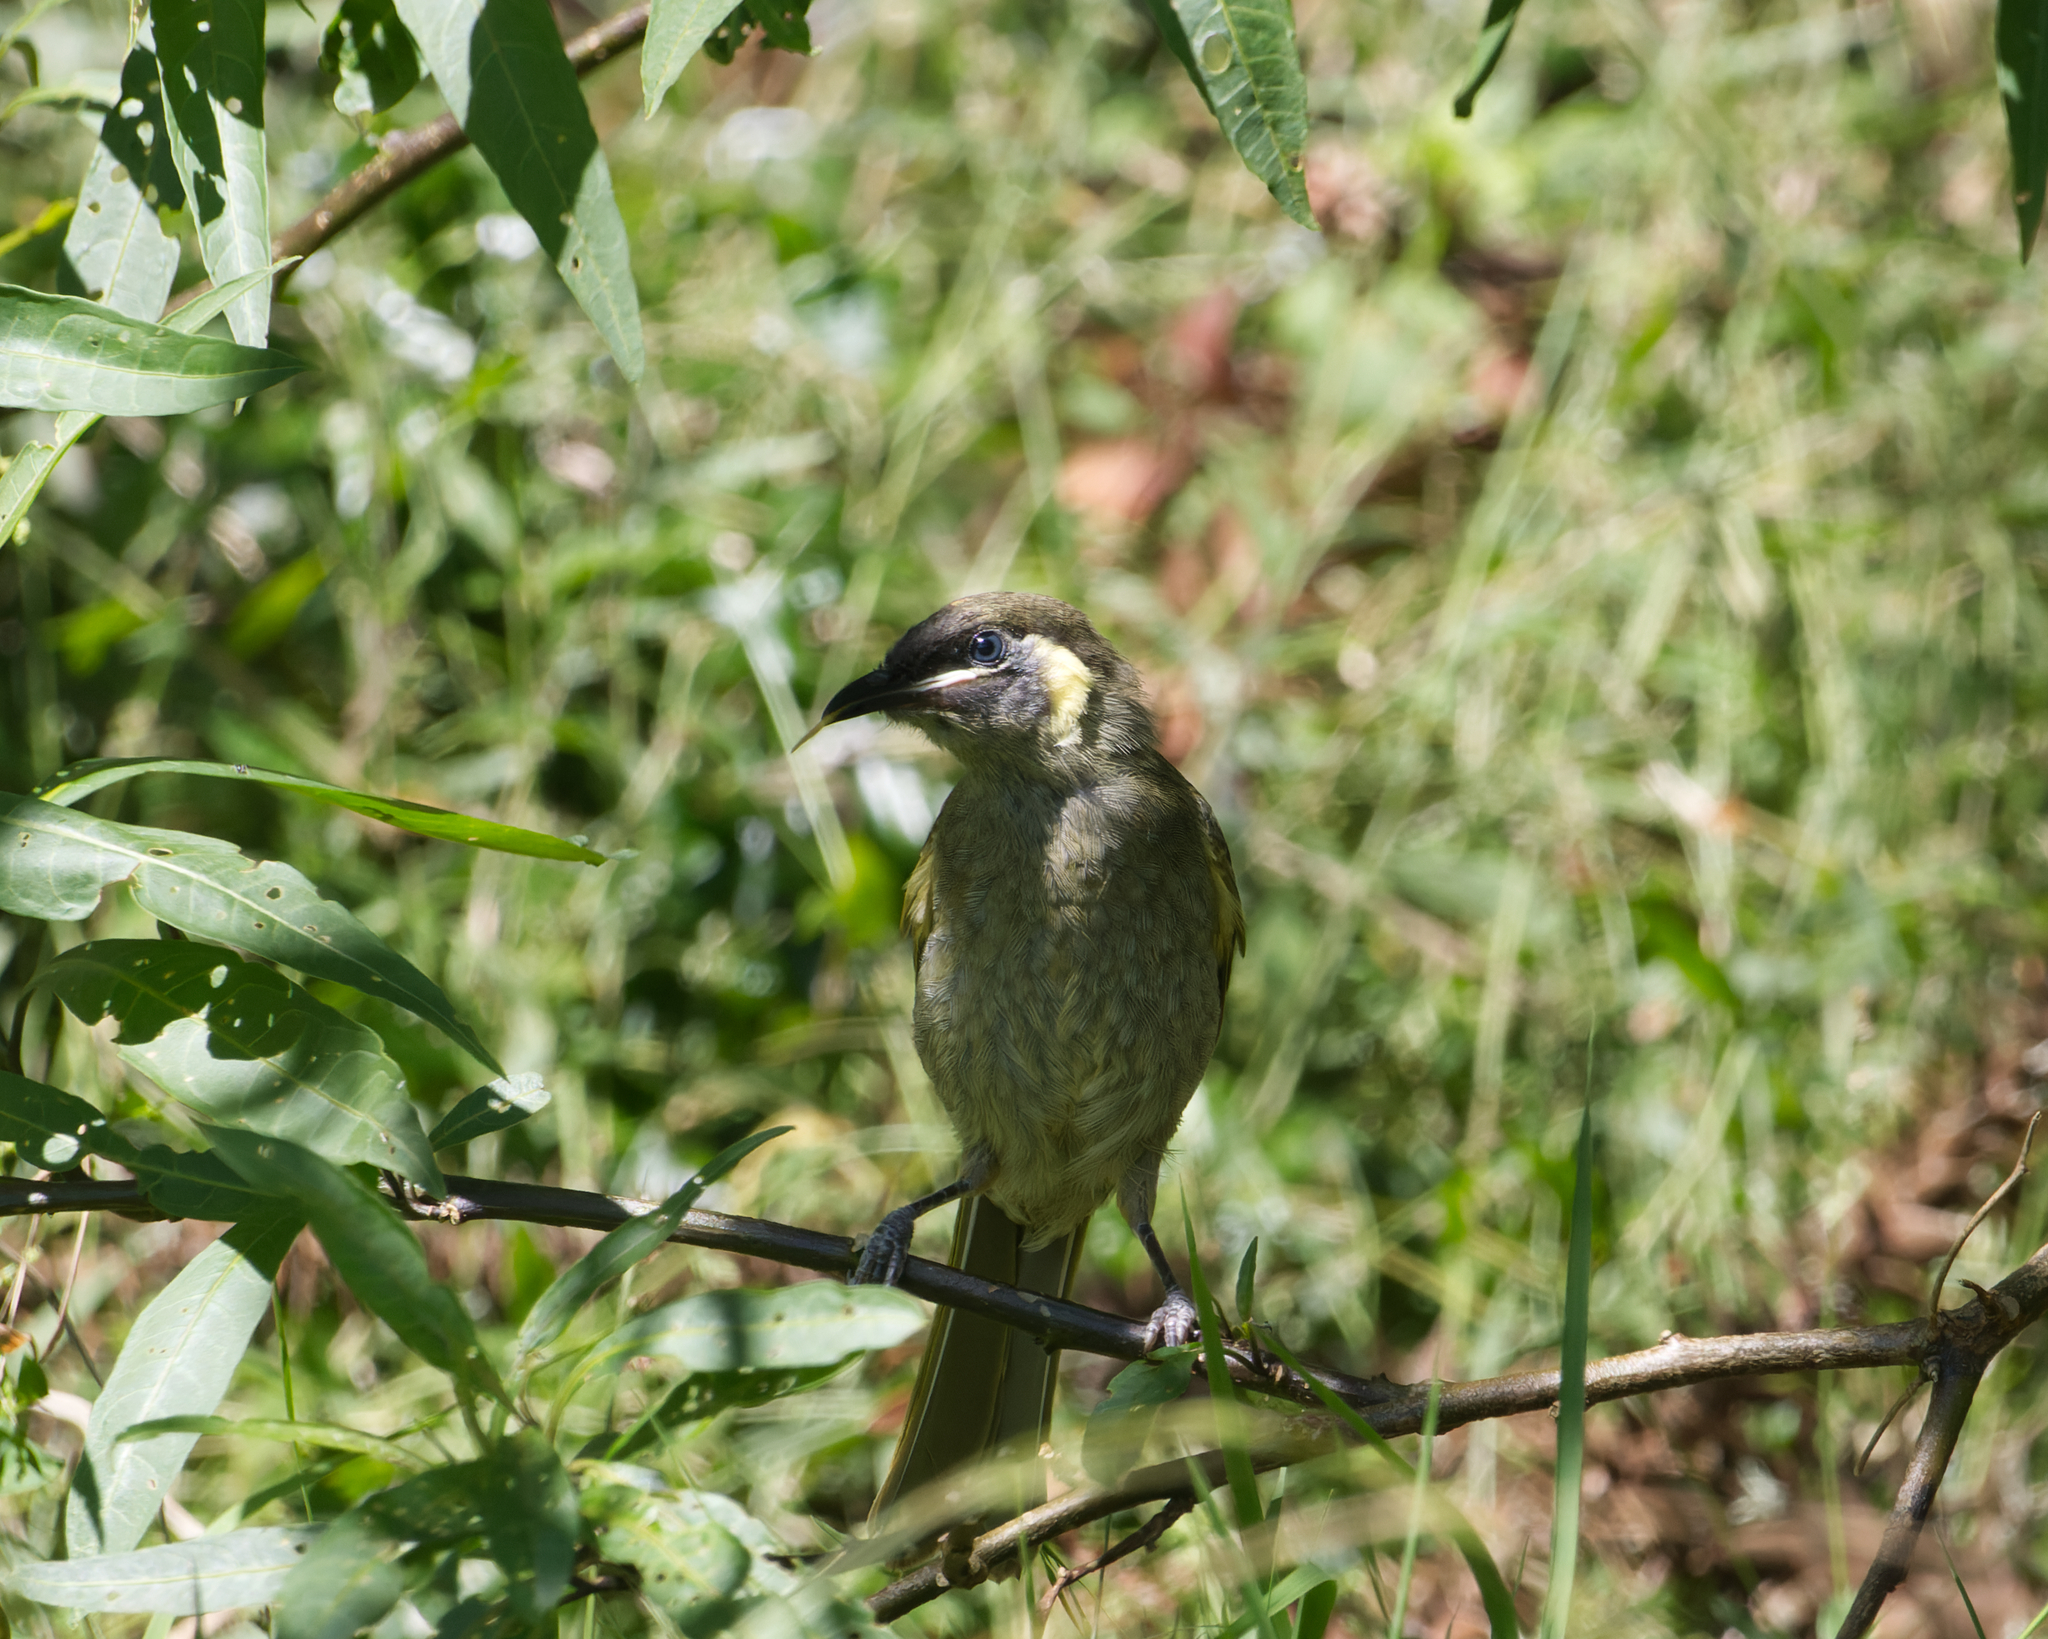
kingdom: Animalia
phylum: Chordata
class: Aves
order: Passeriformes
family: Meliphagidae
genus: Meliphaga
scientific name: Meliphaga lewinii
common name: Lewin's honeyeater
